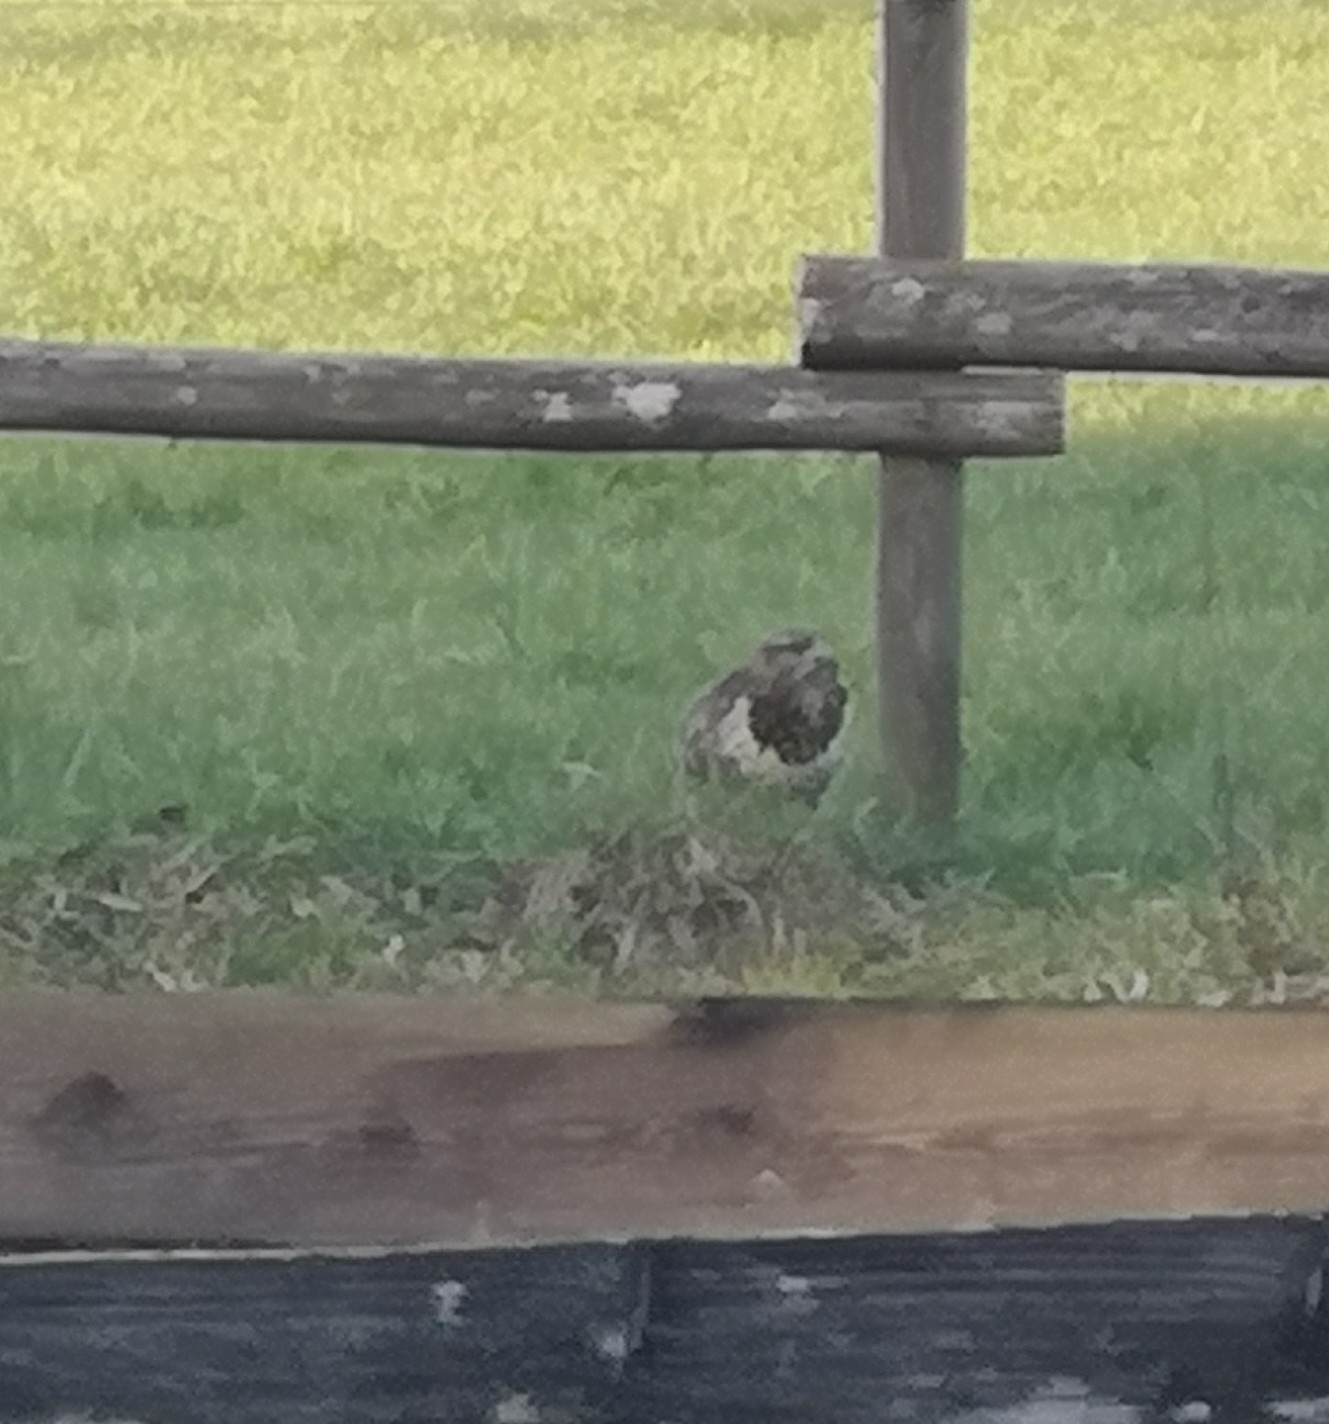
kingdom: Animalia
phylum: Chordata
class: Aves
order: Accipitriformes
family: Accipitridae
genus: Buteo
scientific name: Buteo buteo
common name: Common buzzard
